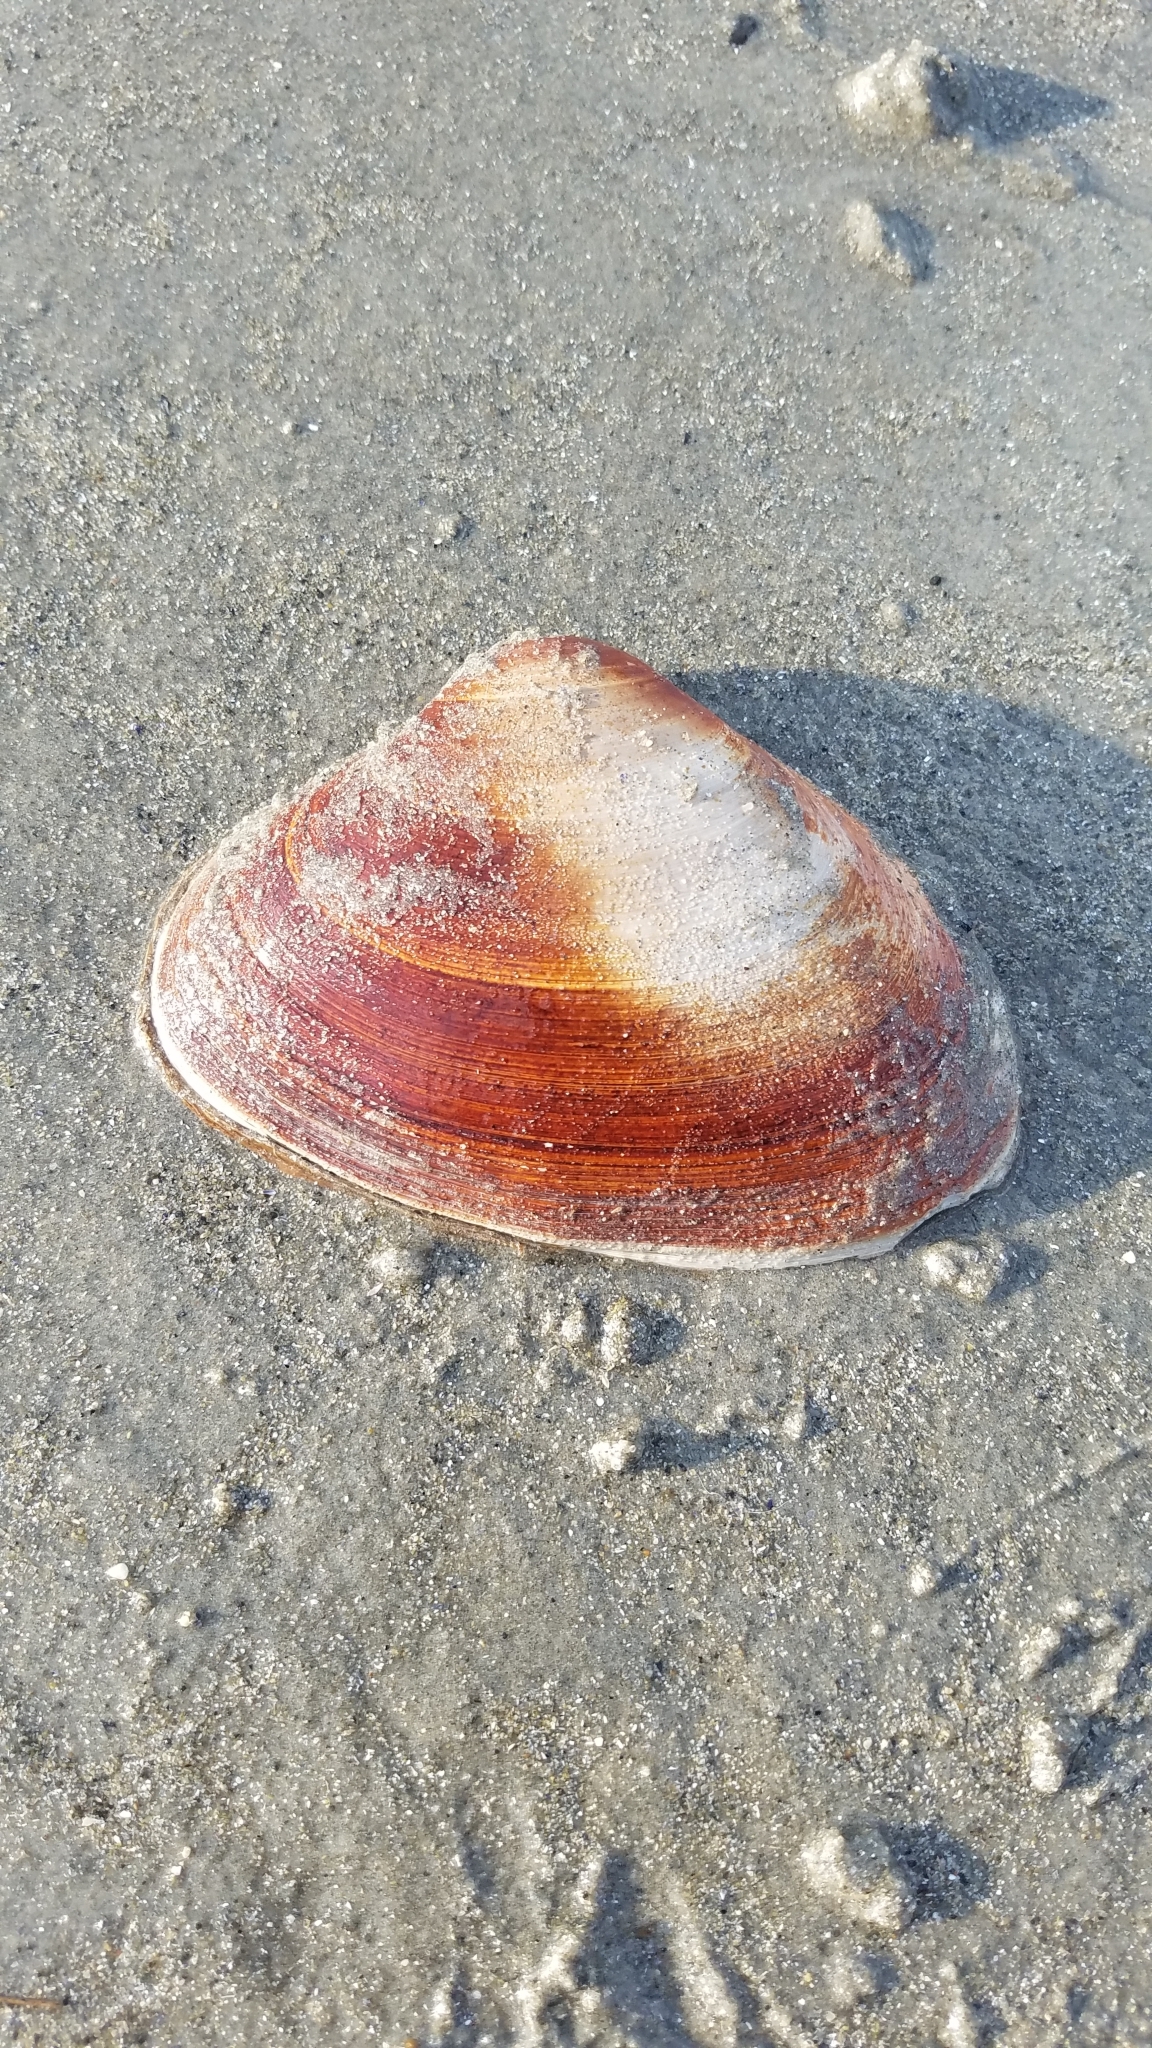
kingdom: Animalia
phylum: Mollusca
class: Bivalvia
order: Venerida
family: Mactridae
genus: Spisula
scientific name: Spisula solidissima
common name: Atlantic surf clam
